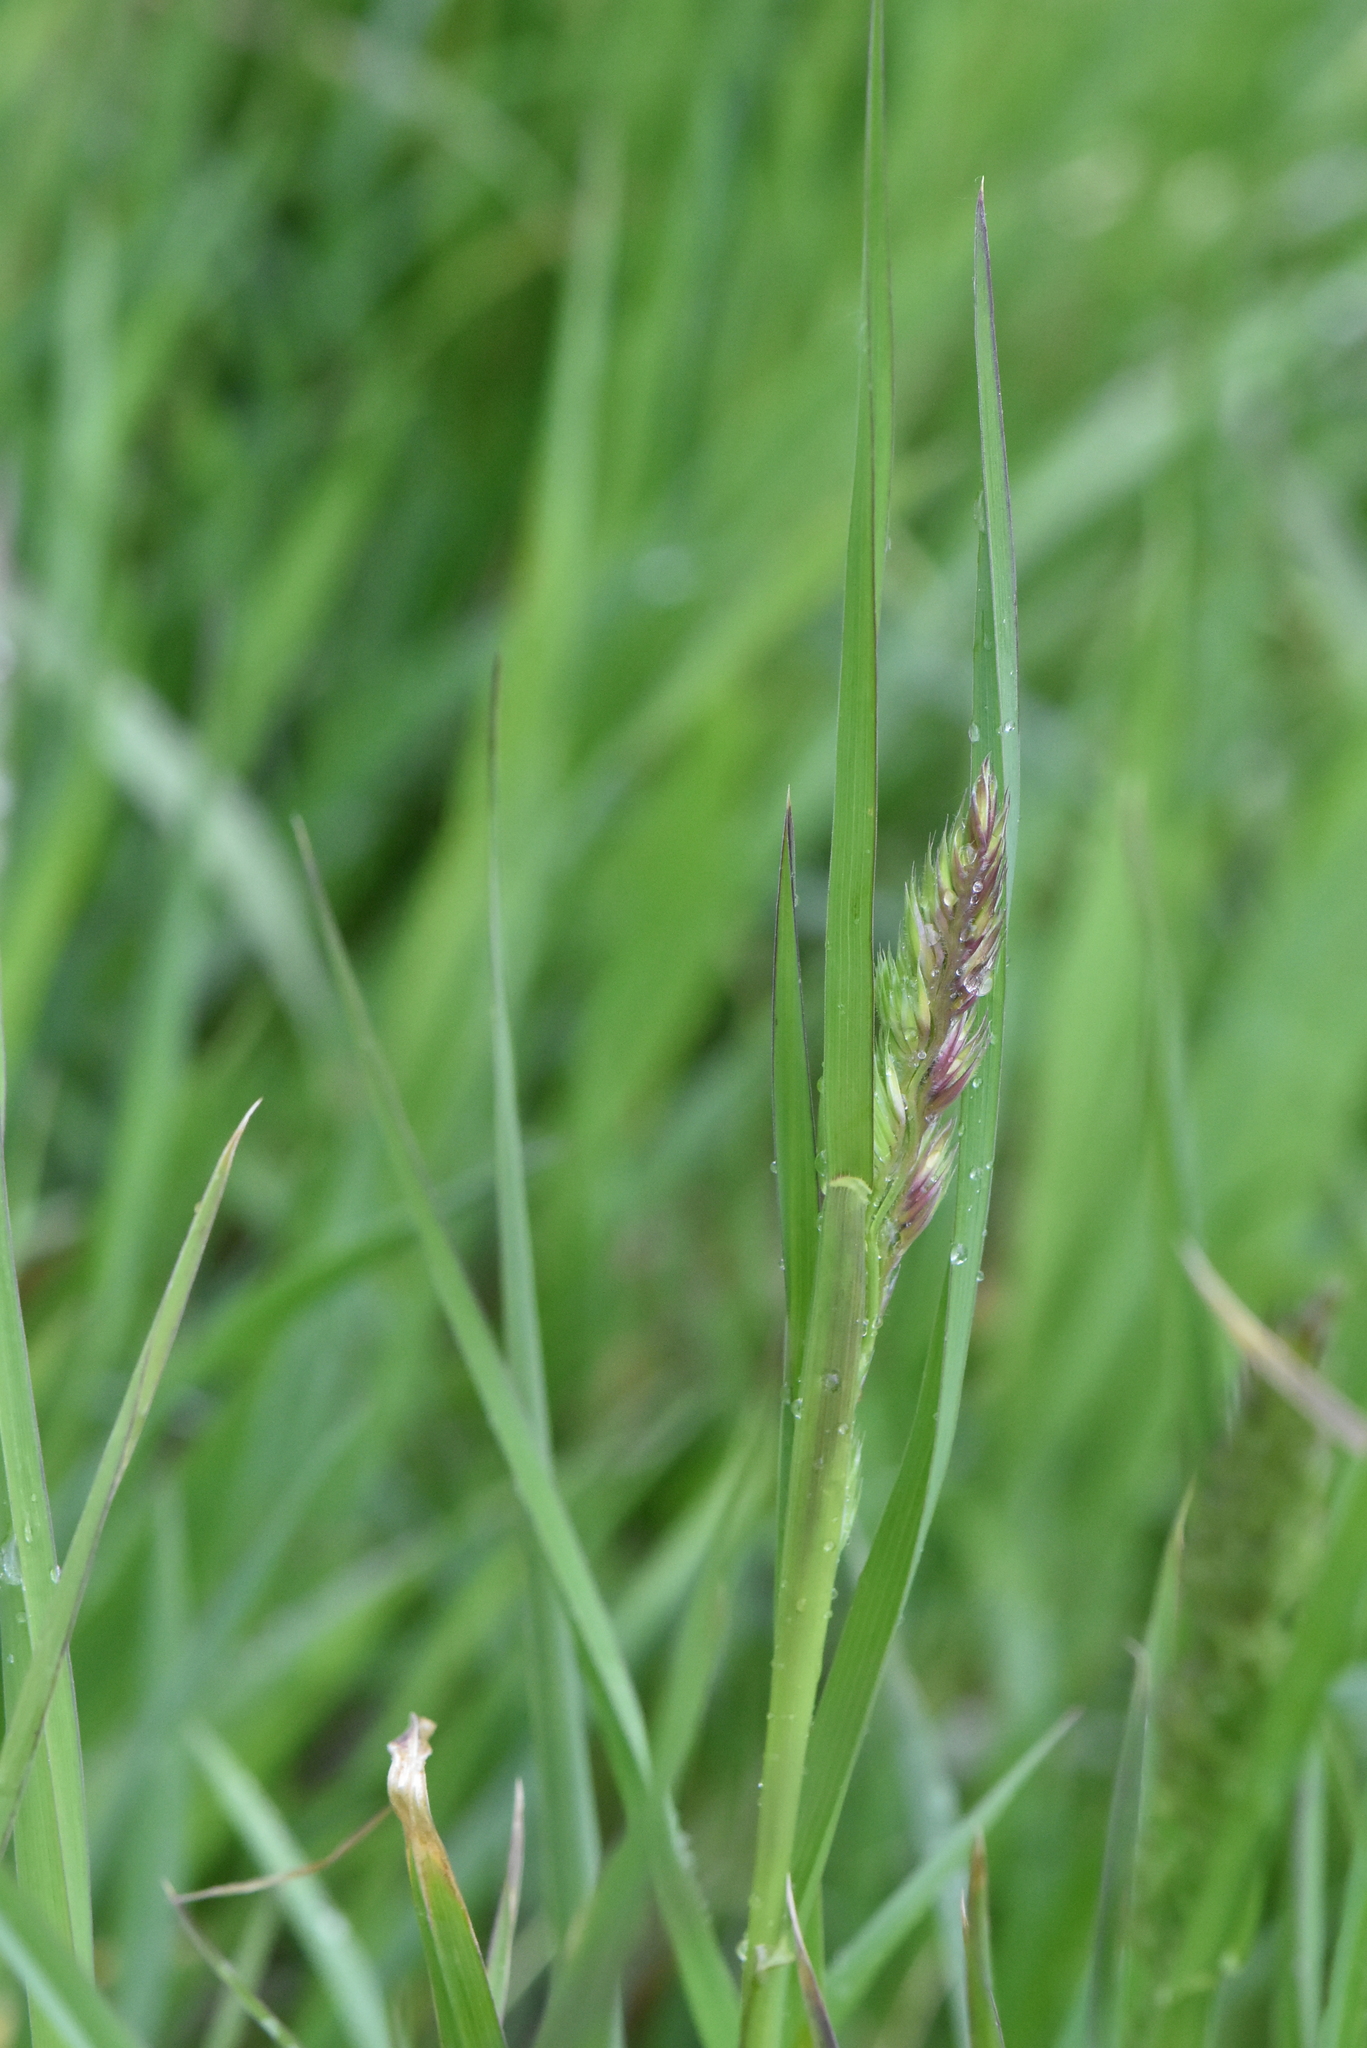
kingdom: Plantae
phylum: Tracheophyta
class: Liliopsida
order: Poales
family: Poaceae
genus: Dactylis
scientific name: Dactylis glomerata
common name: Orchardgrass
